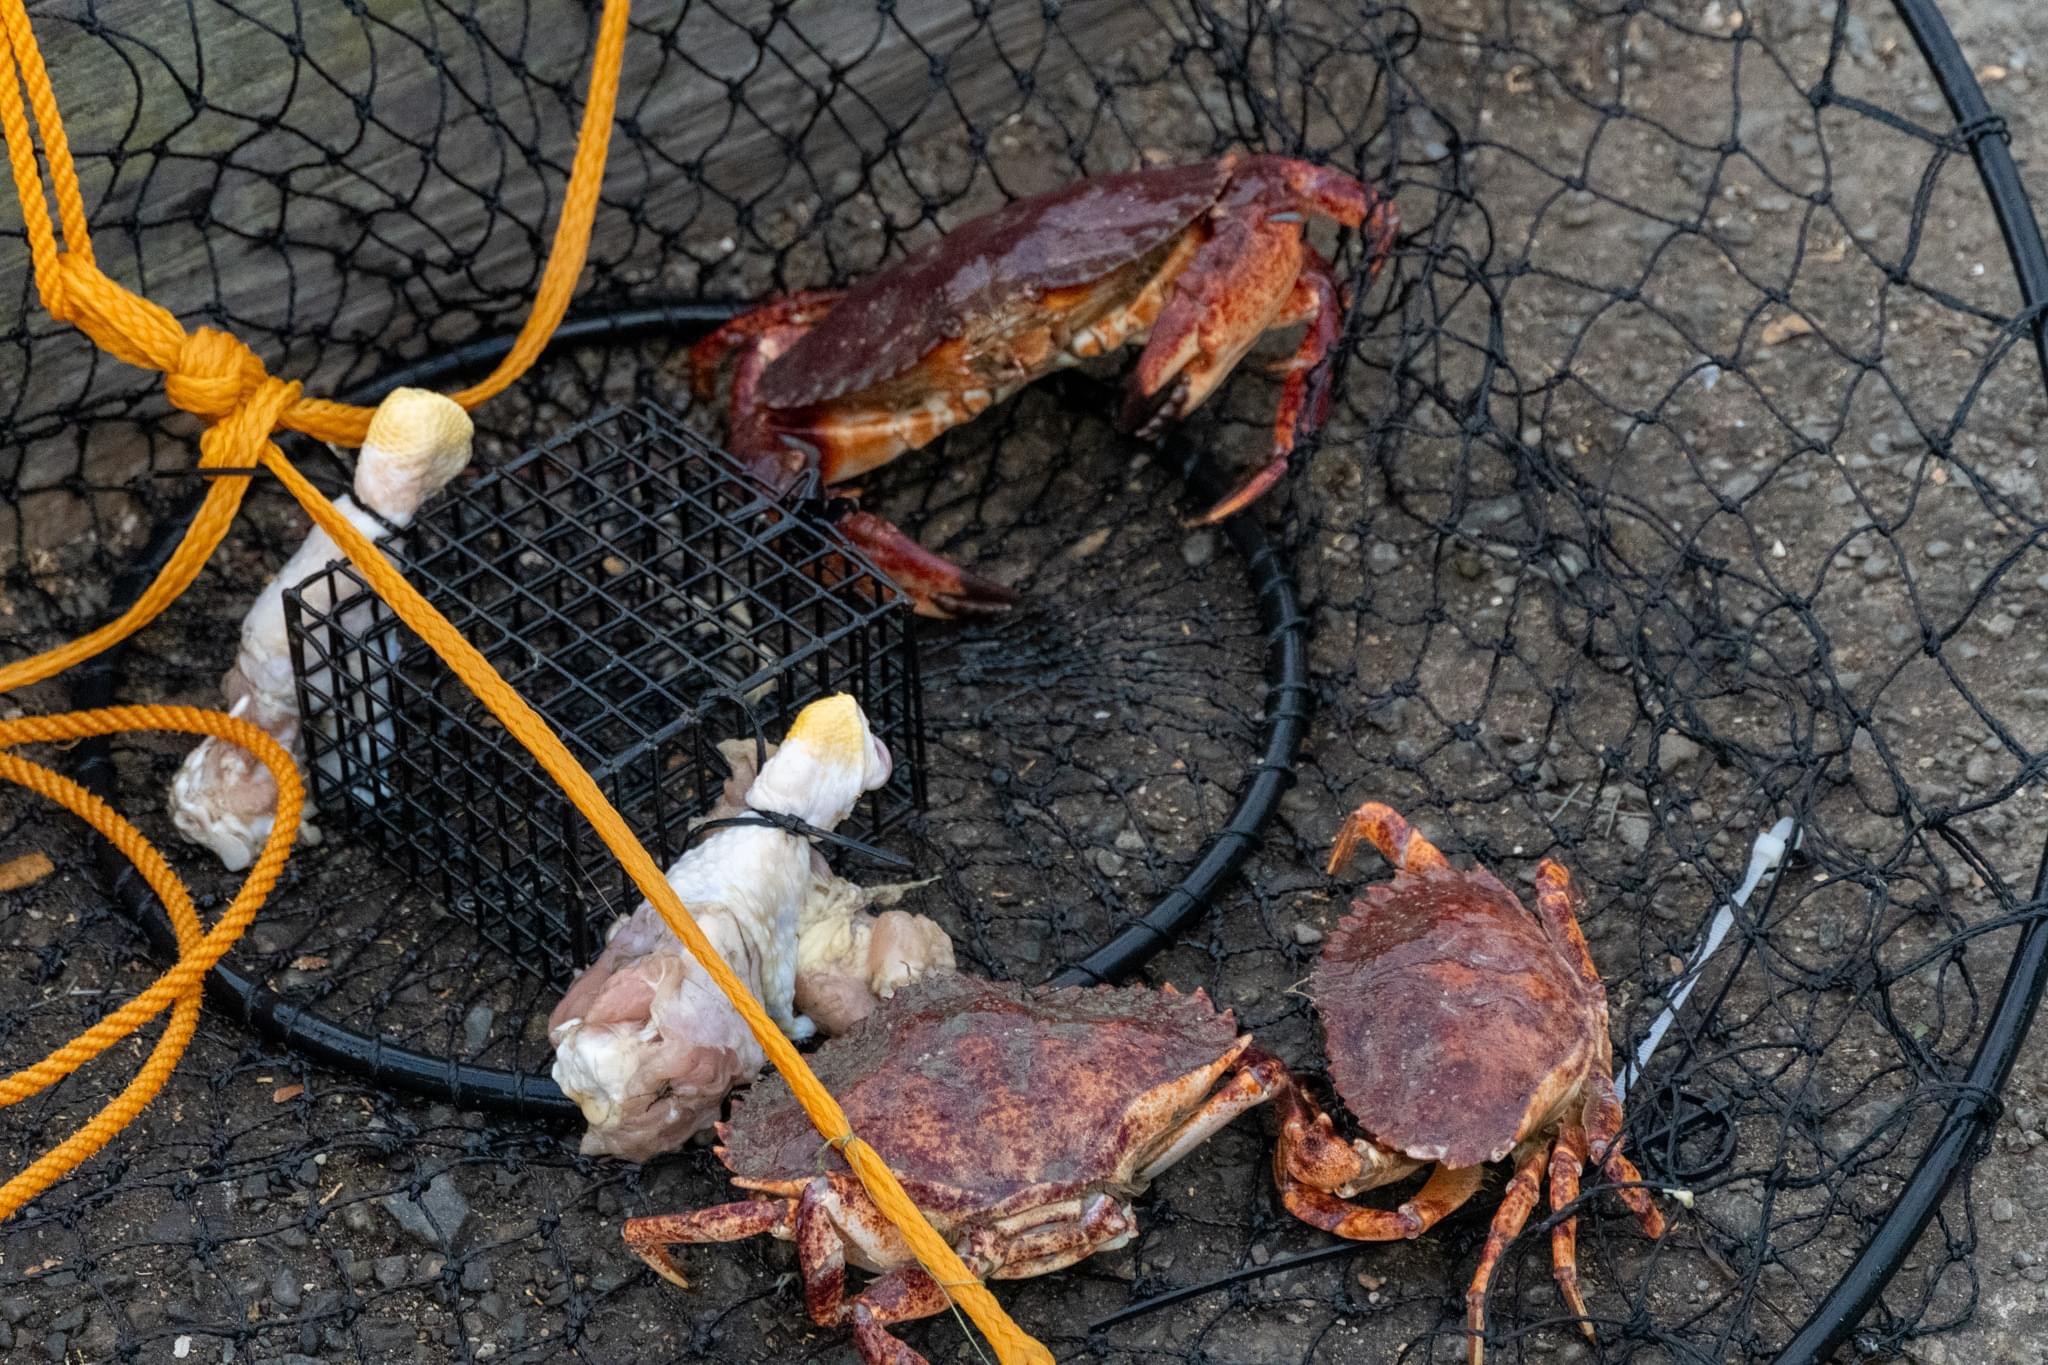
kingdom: Animalia
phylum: Arthropoda
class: Malacostraca
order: Decapoda
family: Cancridae
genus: Cancer
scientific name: Cancer productus
